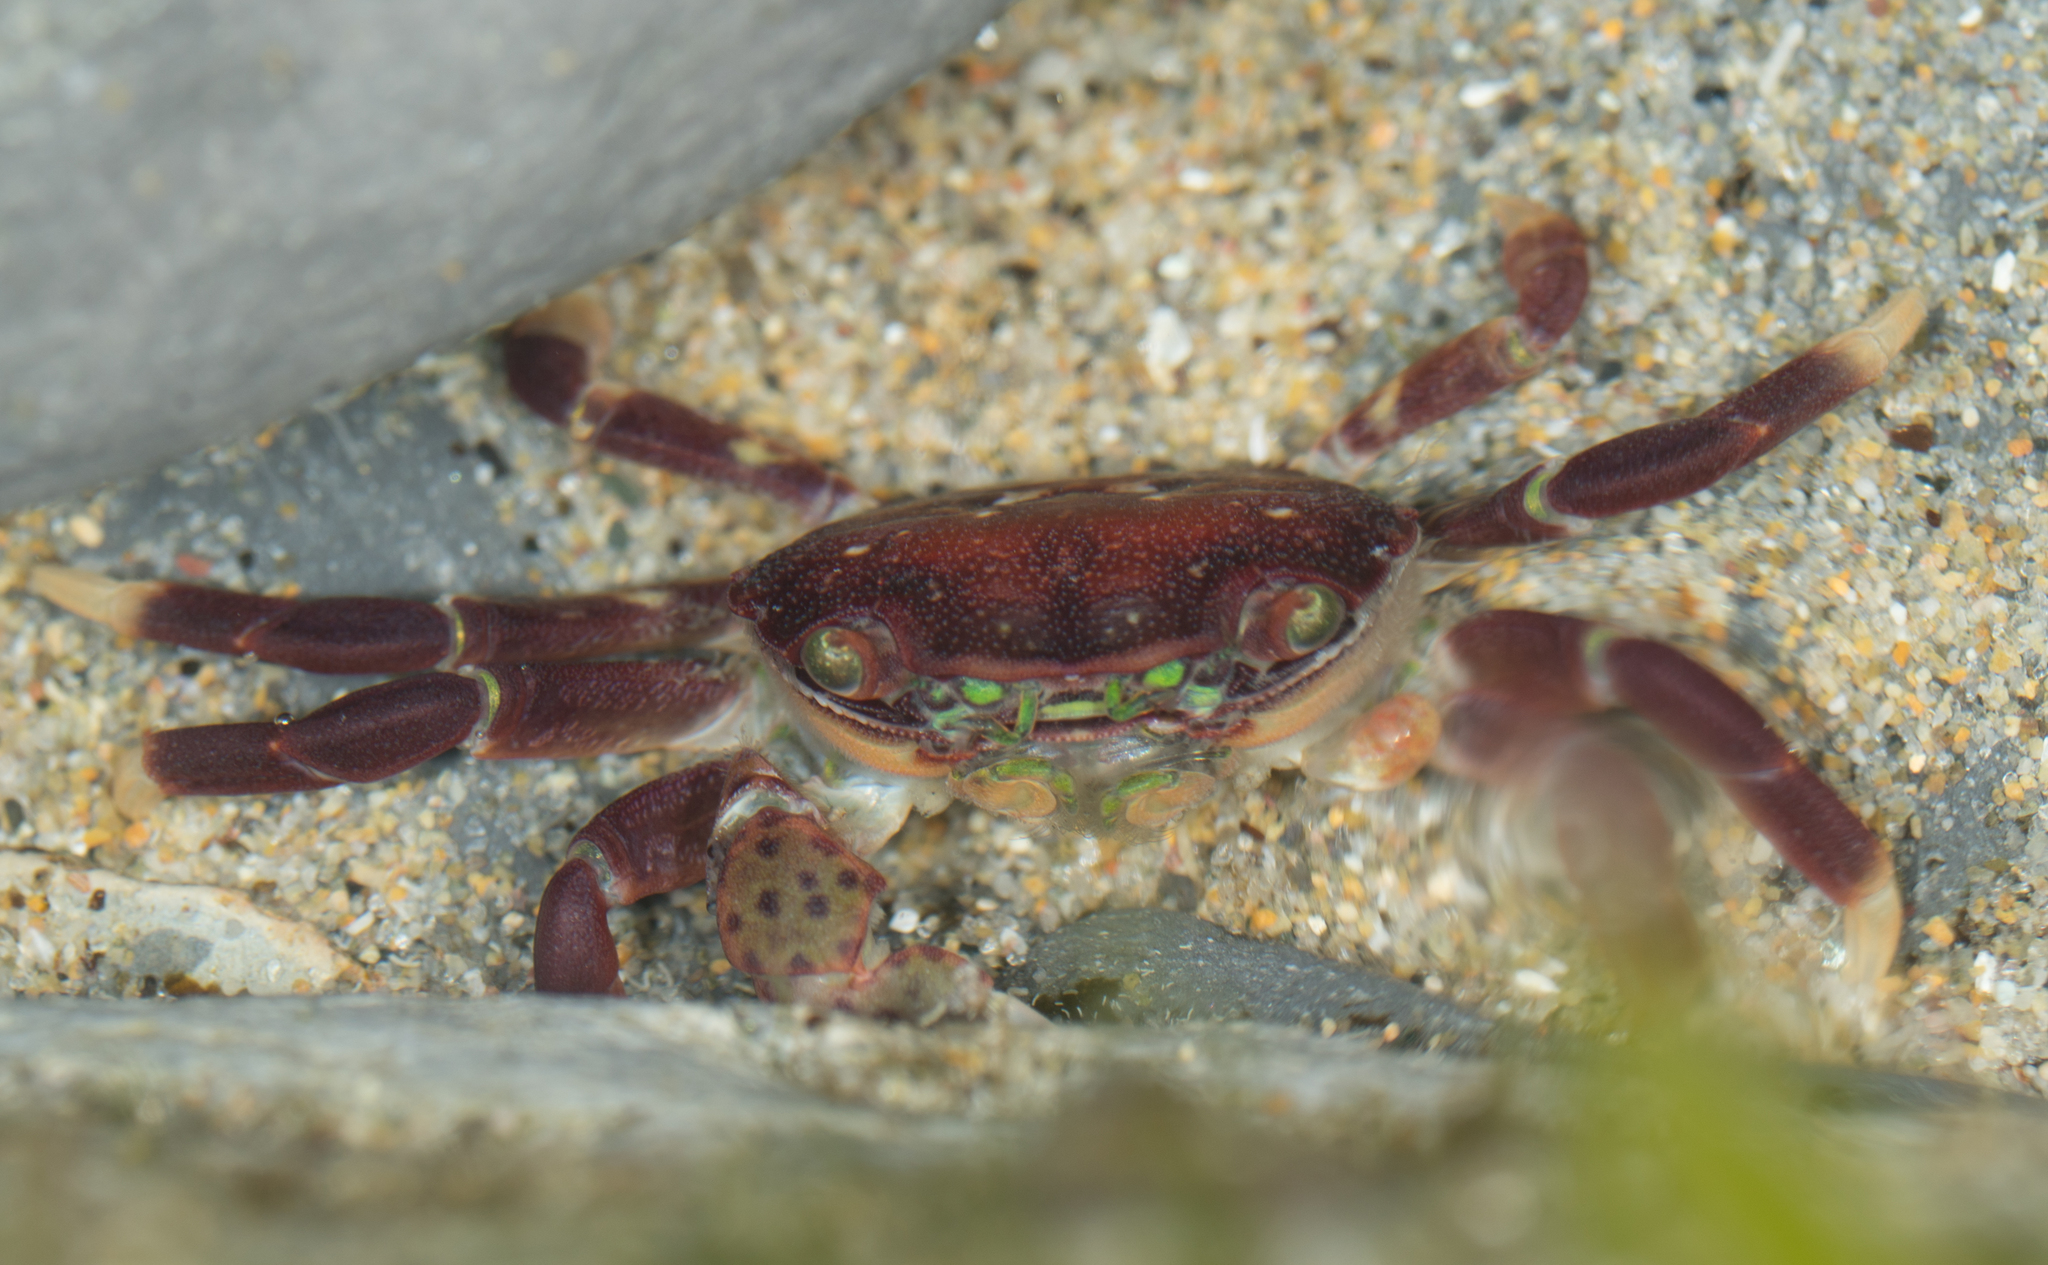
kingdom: Animalia
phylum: Arthropoda
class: Malacostraca
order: Decapoda
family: Varunidae
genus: Hemigrapsus
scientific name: Hemigrapsus nudus
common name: Purple shore crab
